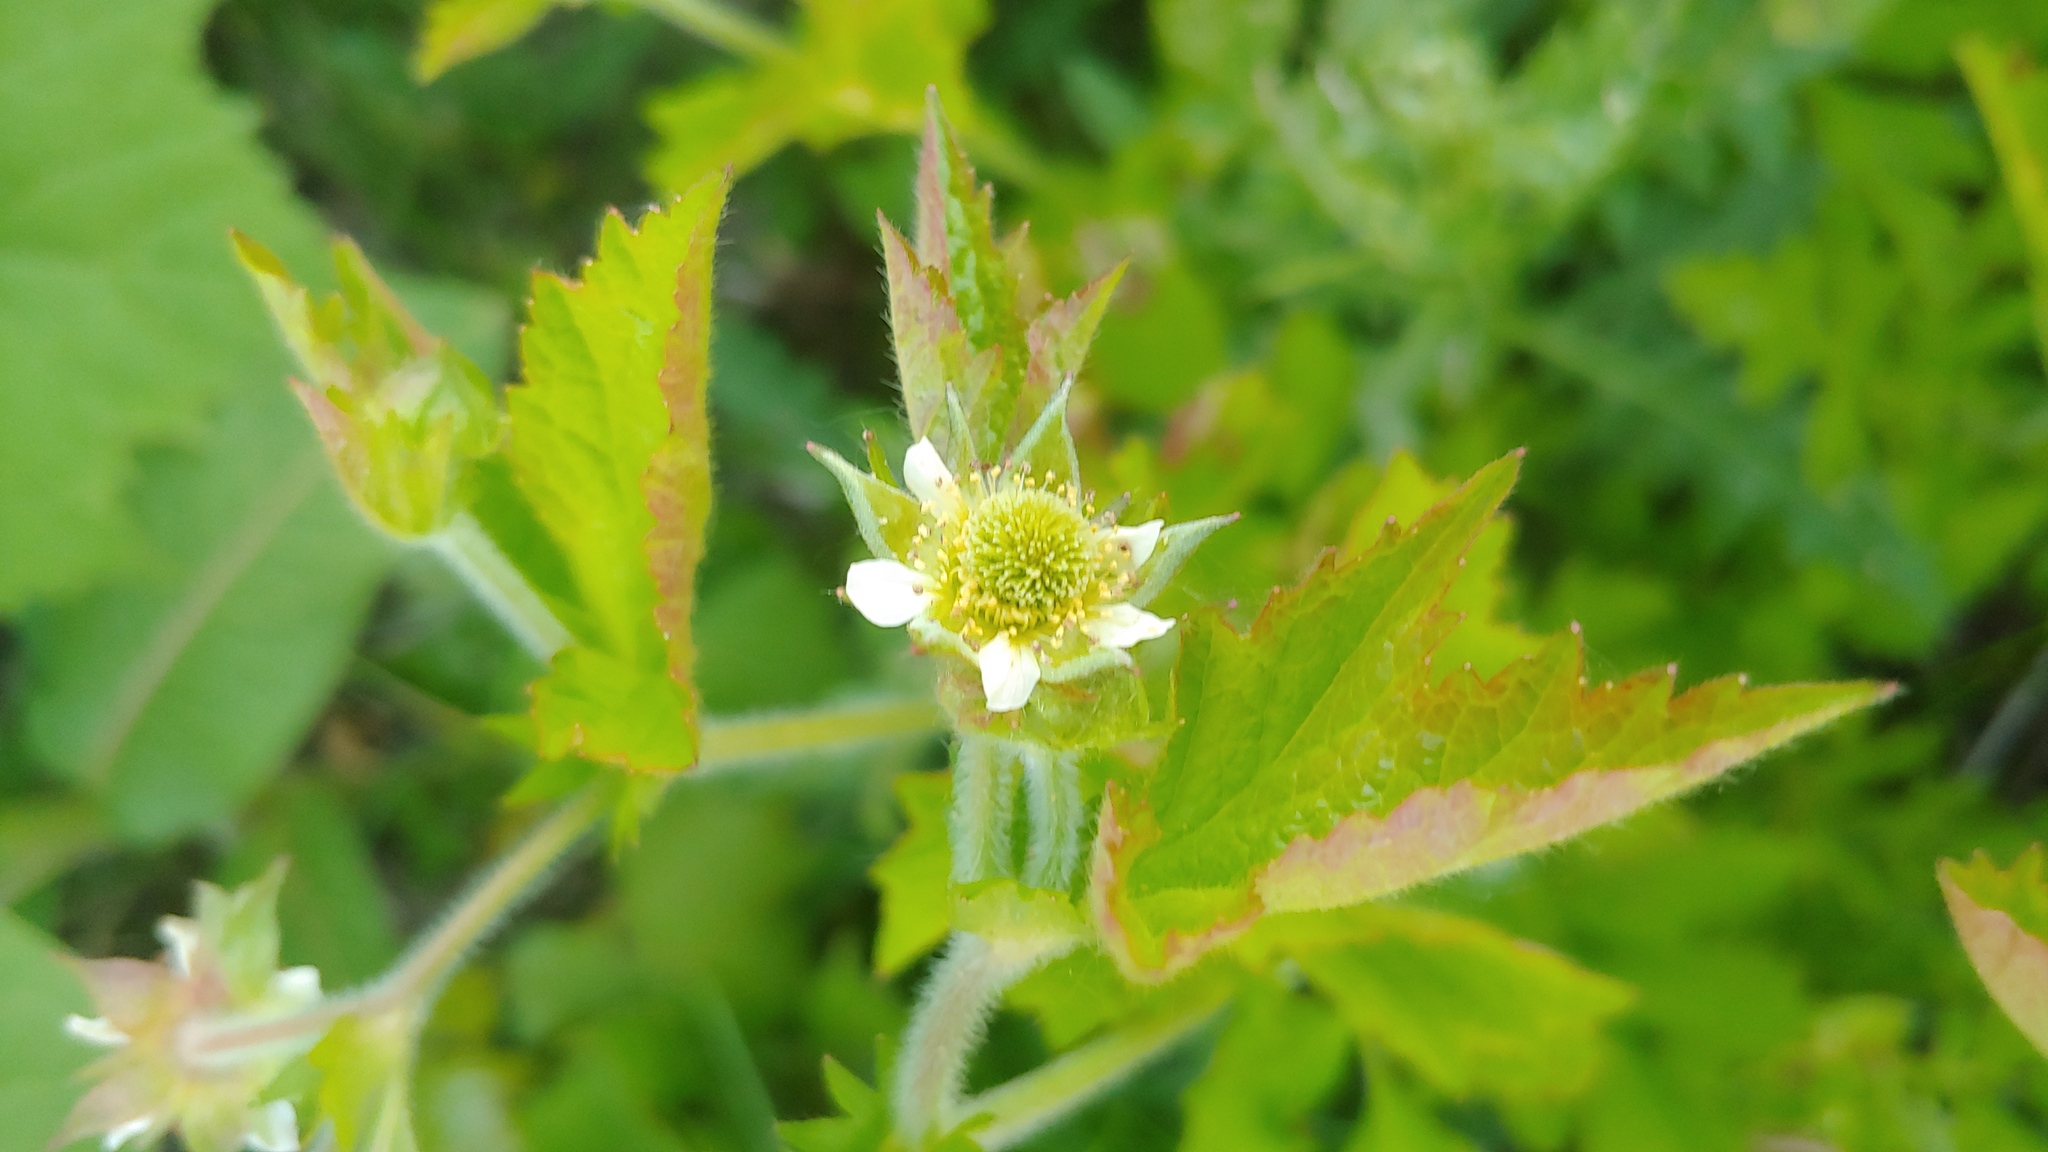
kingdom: Plantae
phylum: Tracheophyta
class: Magnoliopsida
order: Rosales
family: Rosaceae
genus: Geum
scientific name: Geum laciniatum
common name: Rough avens
